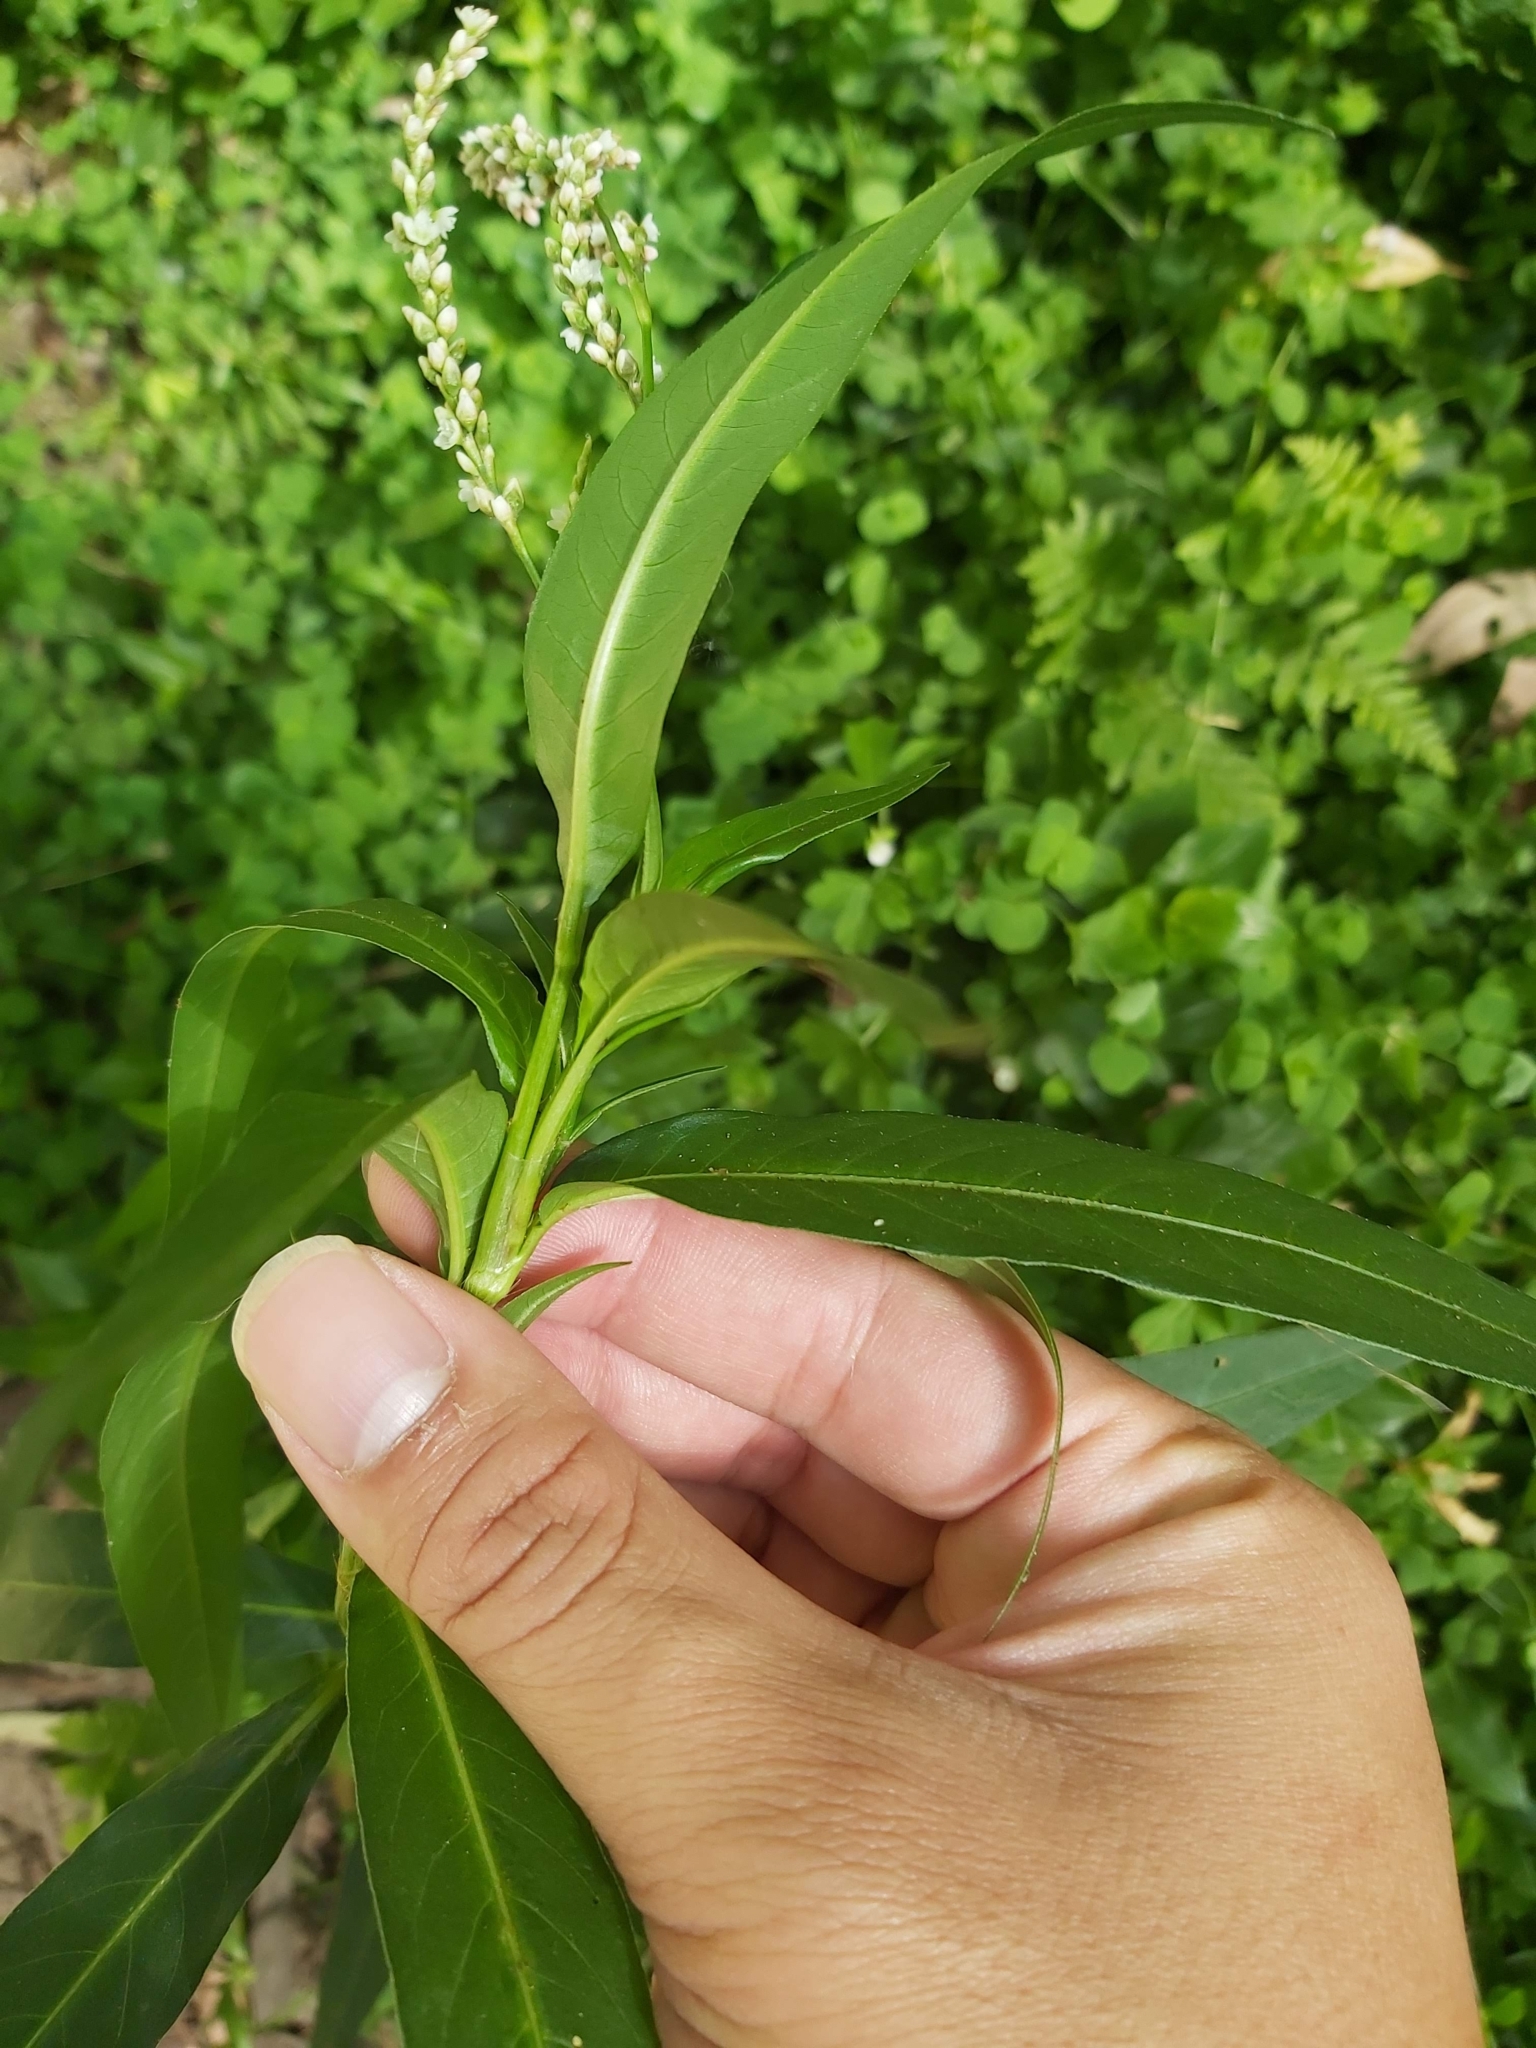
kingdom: Plantae
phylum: Tracheophyta
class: Magnoliopsida
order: Caryophyllales
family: Polygonaceae
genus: Persicaria
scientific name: Persicaria decipiens
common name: Willow-weed
